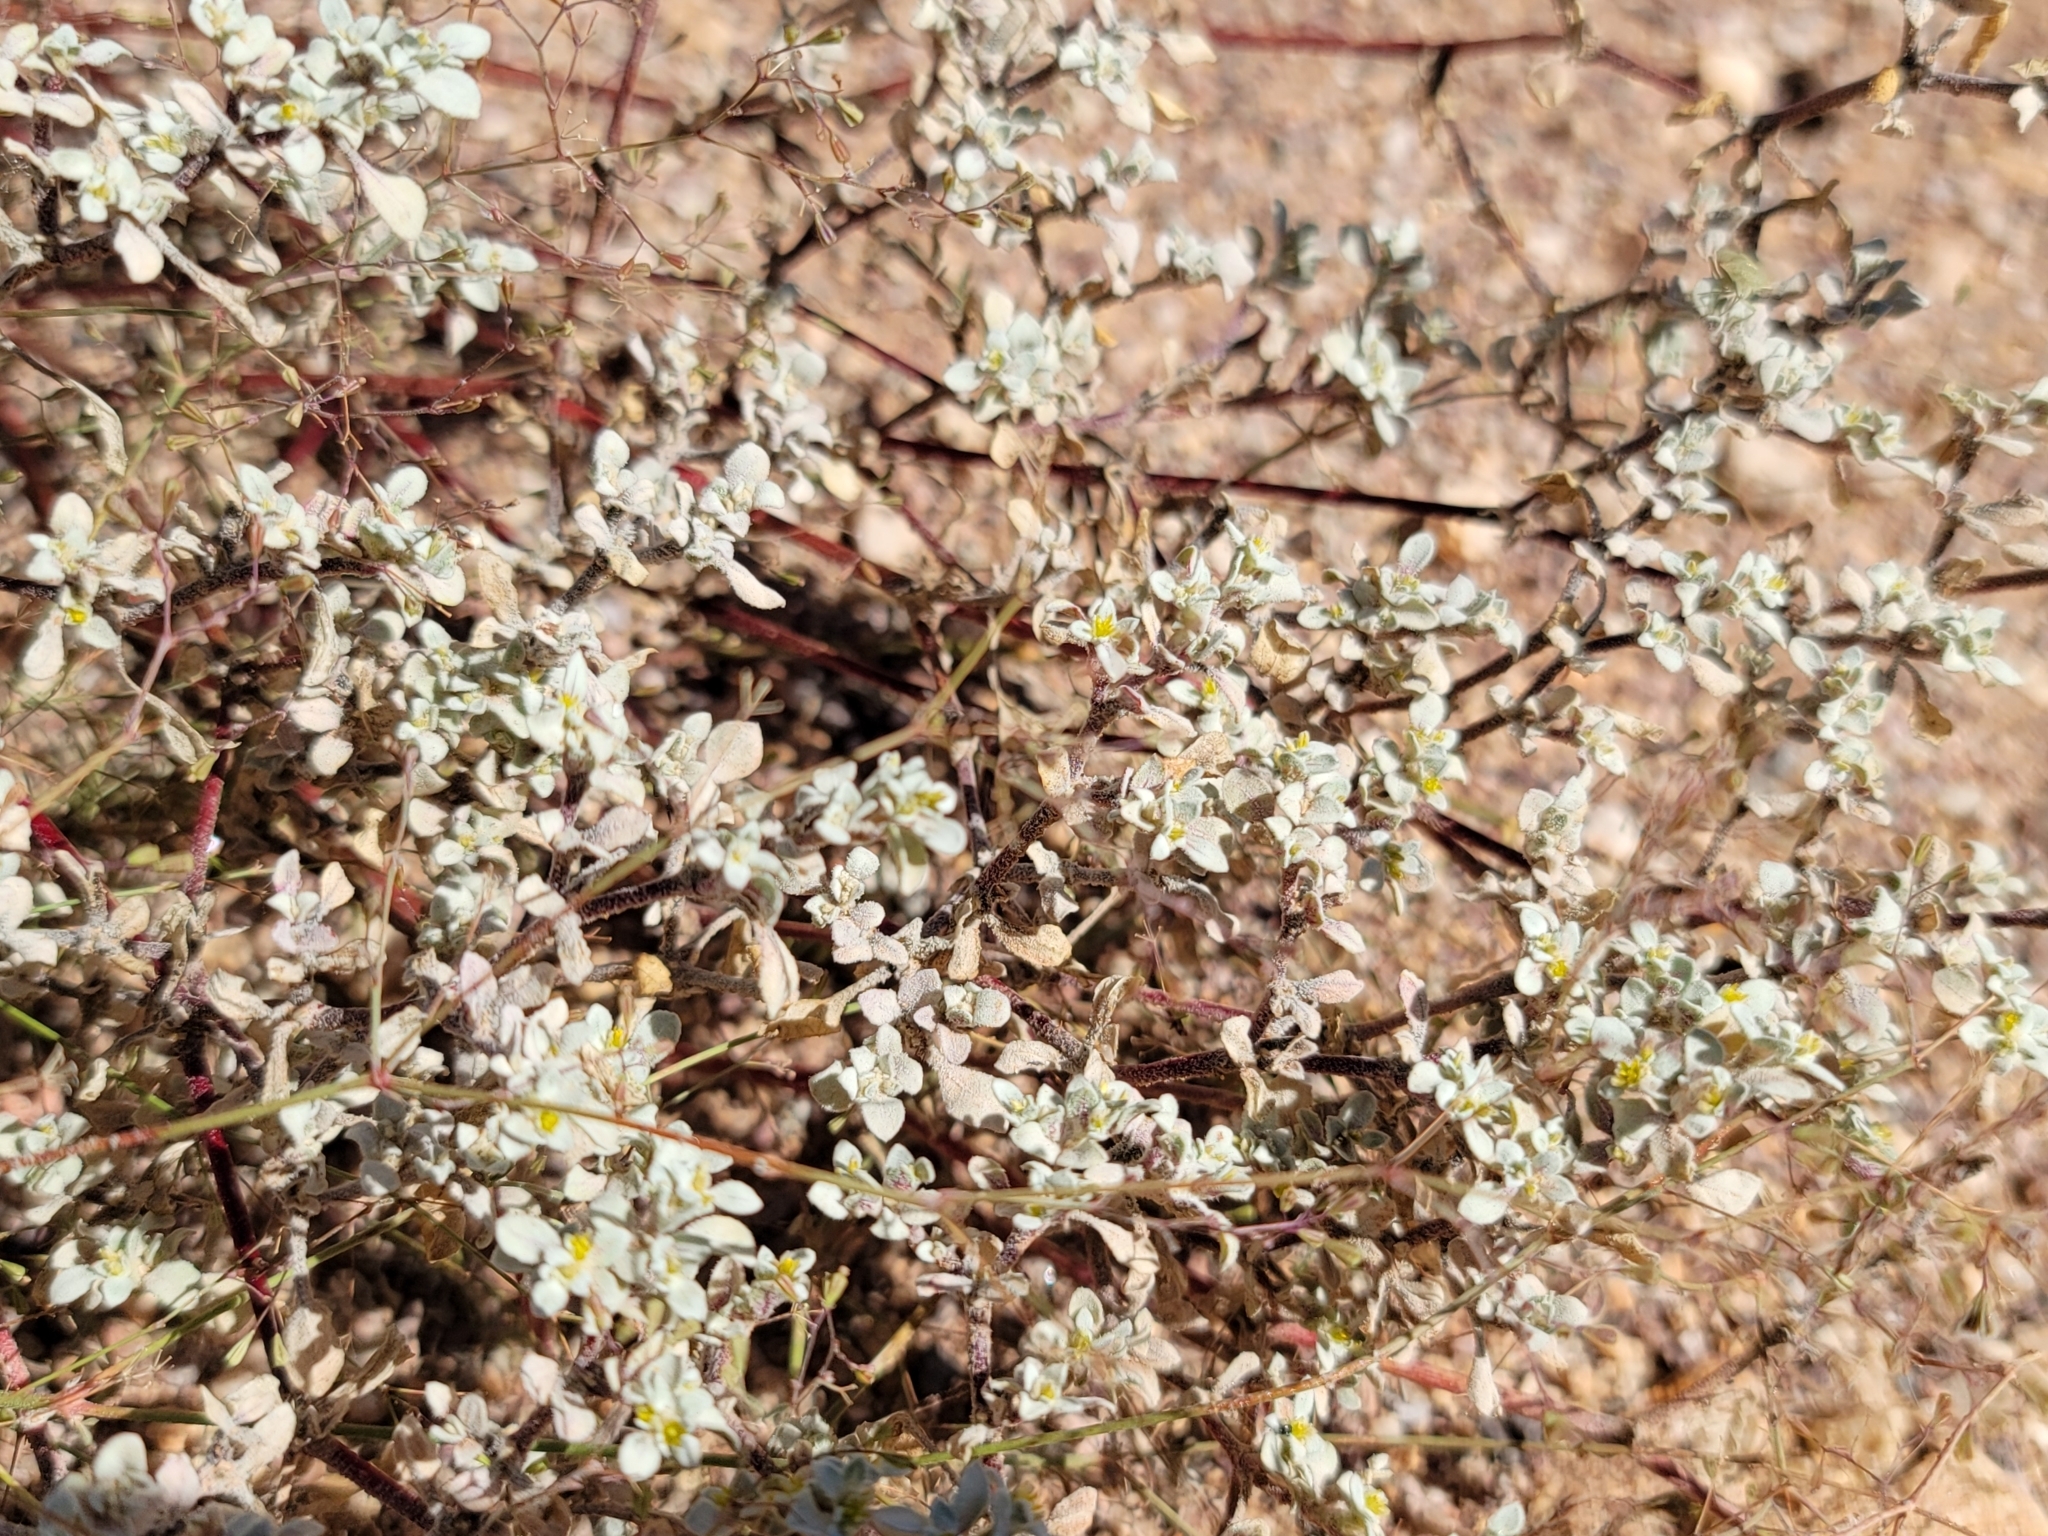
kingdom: Plantae
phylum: Tracheophyta
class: Magnoliopsida
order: Caryophyllales
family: Amaranthaceae
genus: Tidestromia
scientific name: Tidestromia lanuginosa
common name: Woolly tidestromia
